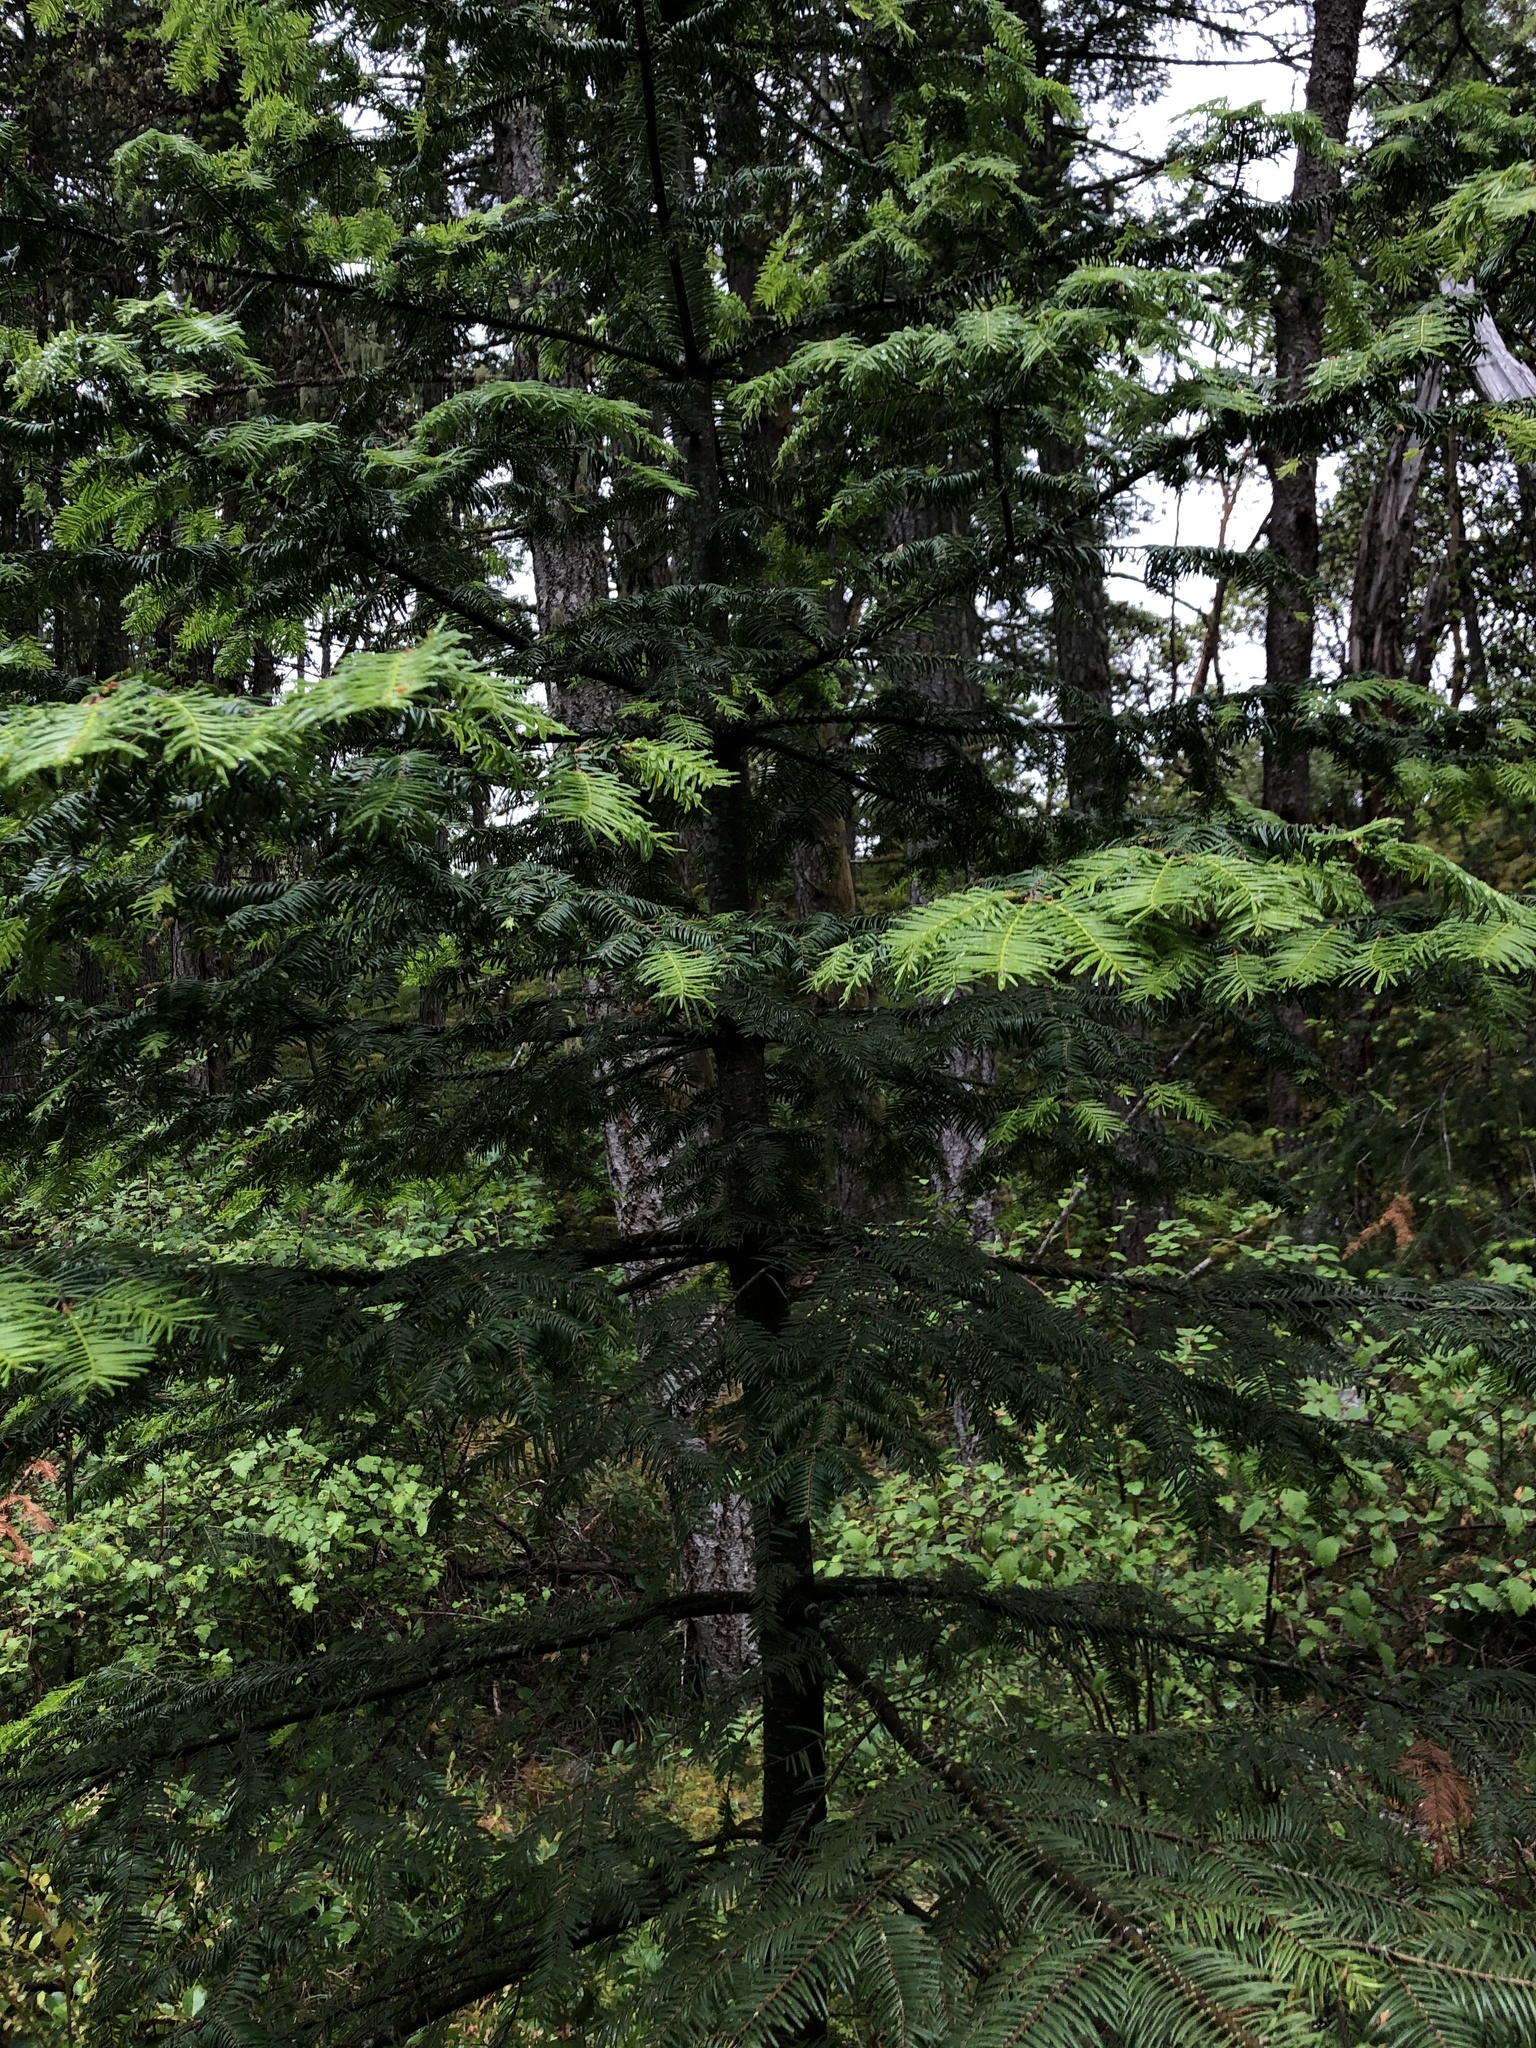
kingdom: Plantae
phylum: Tracheophyta
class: Pinopsida
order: Pinales
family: Pinaceae
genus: Abies
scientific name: Abies grandis
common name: Giant fir
